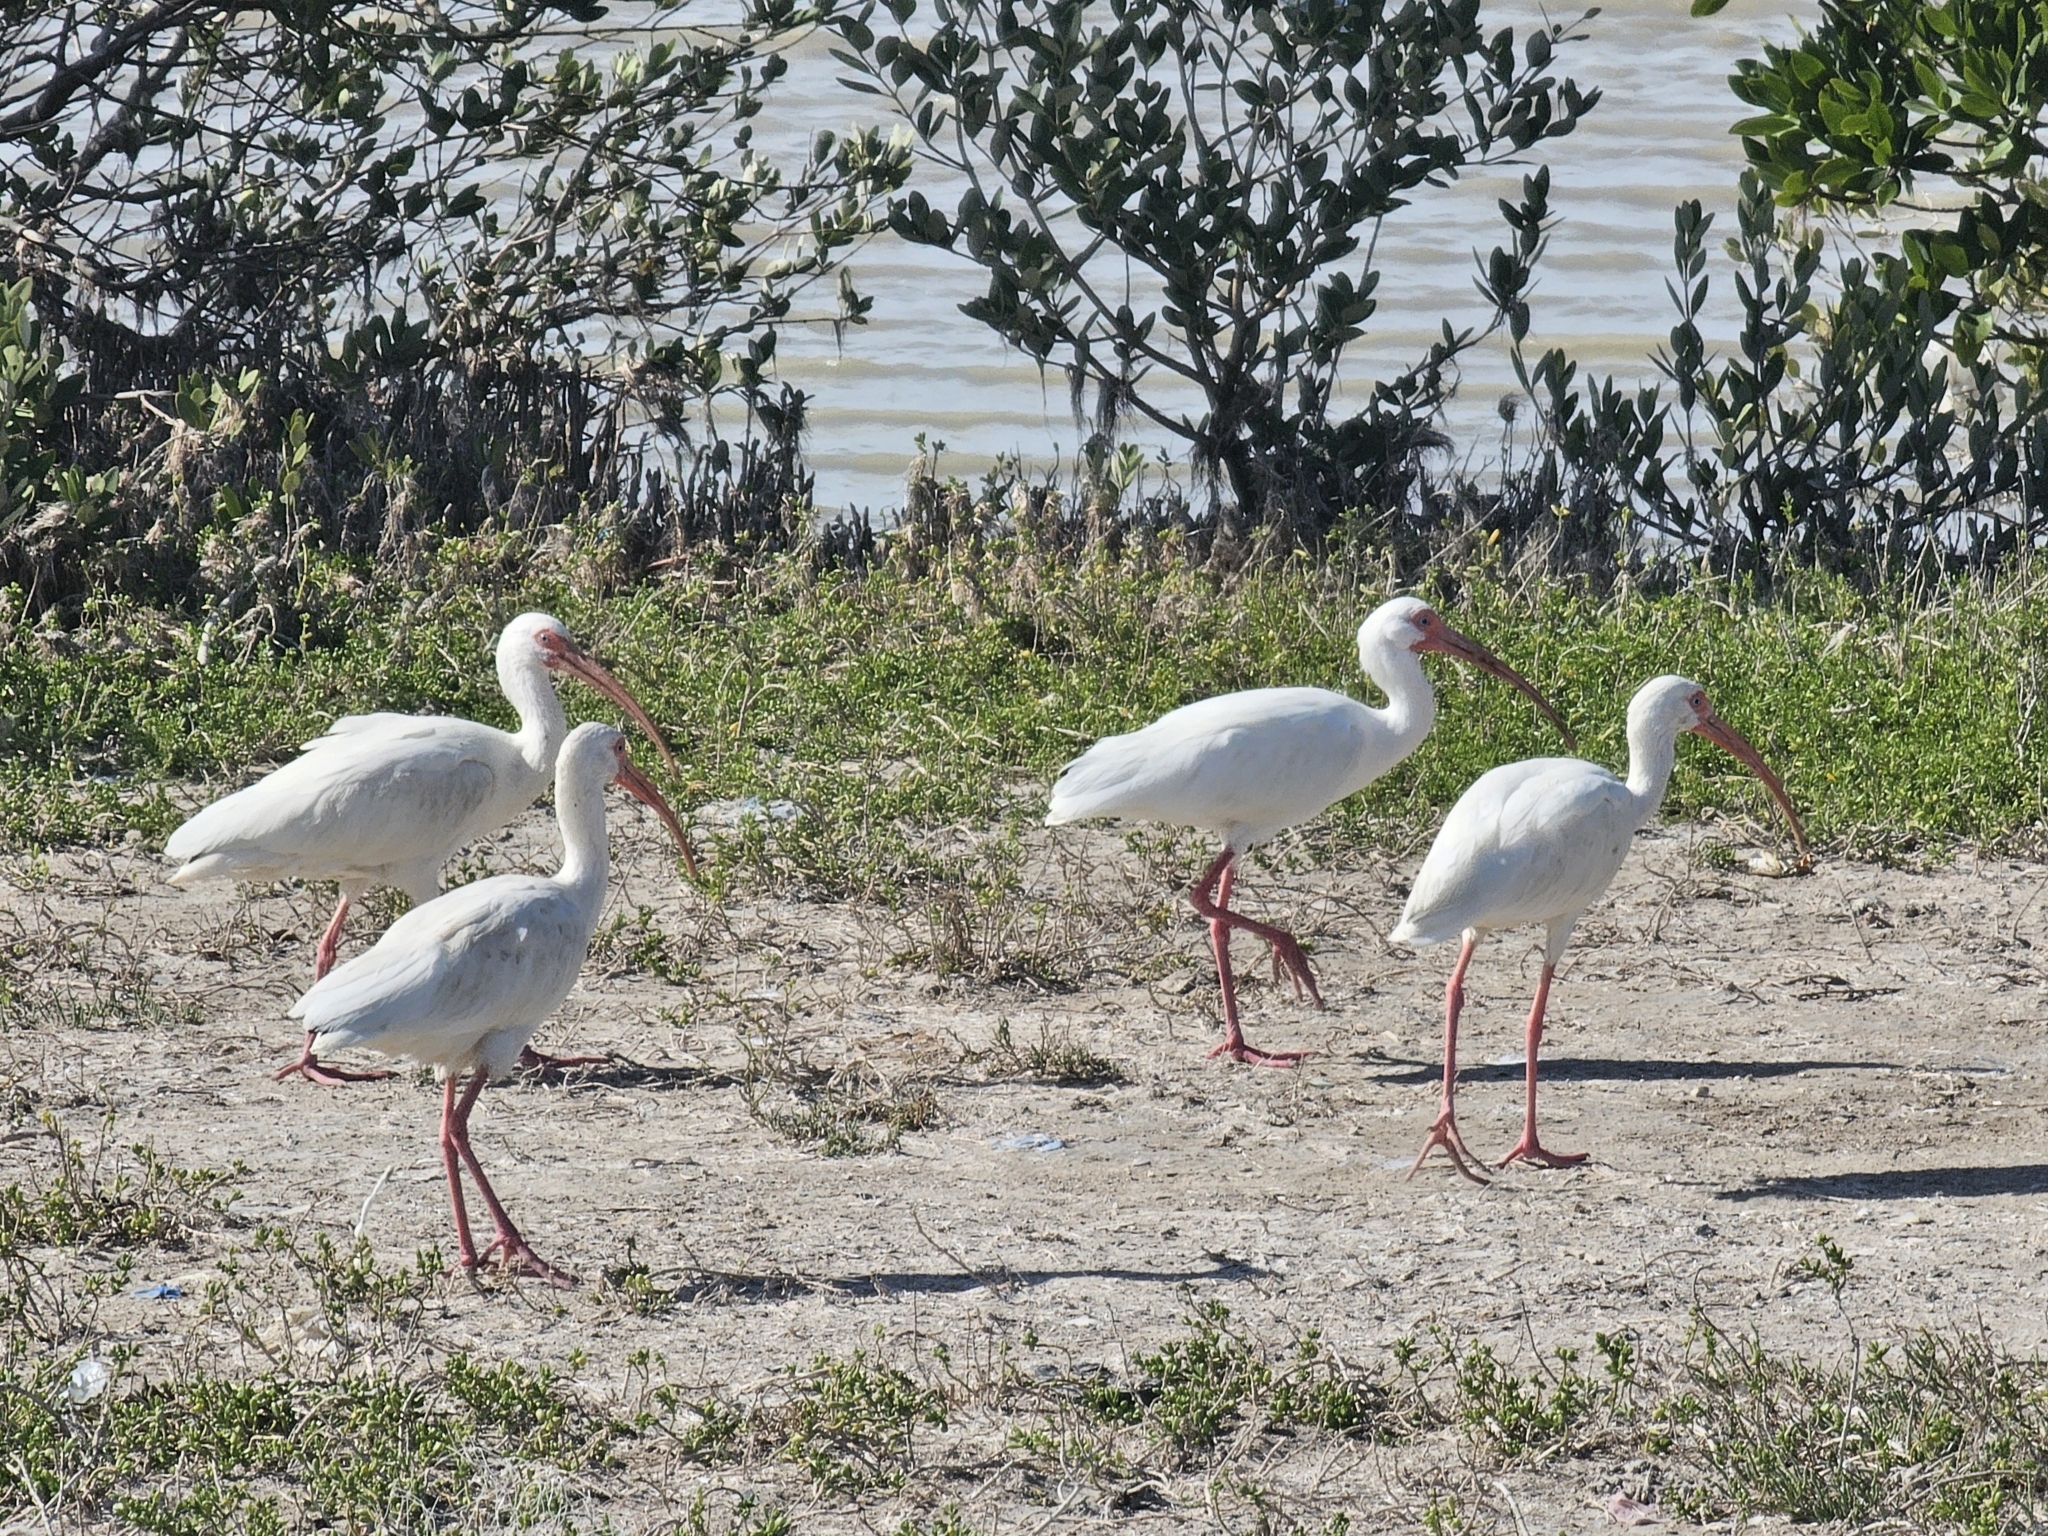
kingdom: Animalia
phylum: Chordata
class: Aves
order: Pelecaniformes
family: Threskiornithidae
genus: Eudocimus
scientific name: Eudocimus albus
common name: White ibis
